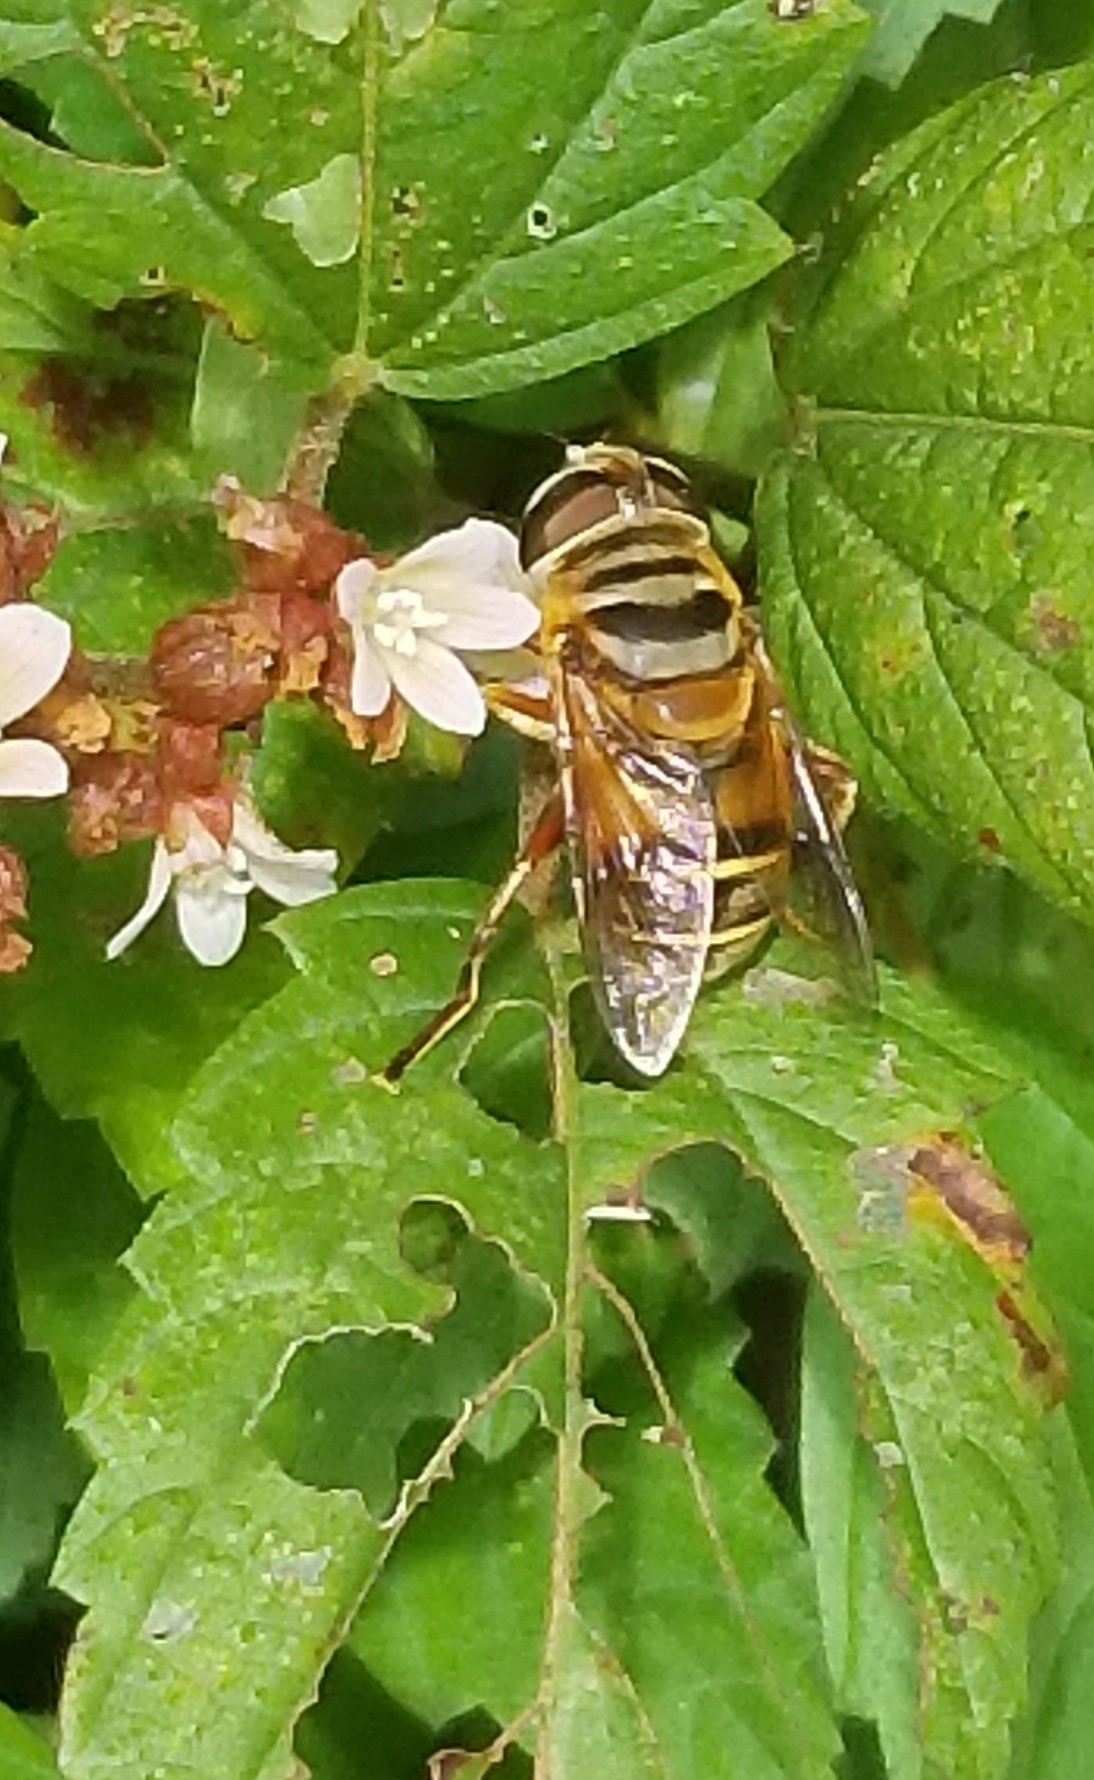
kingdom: Animalia
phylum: Arthropoda
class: Insecta
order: Diptera
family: Syrphidae
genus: Palpada
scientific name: Palpada vinetorum
